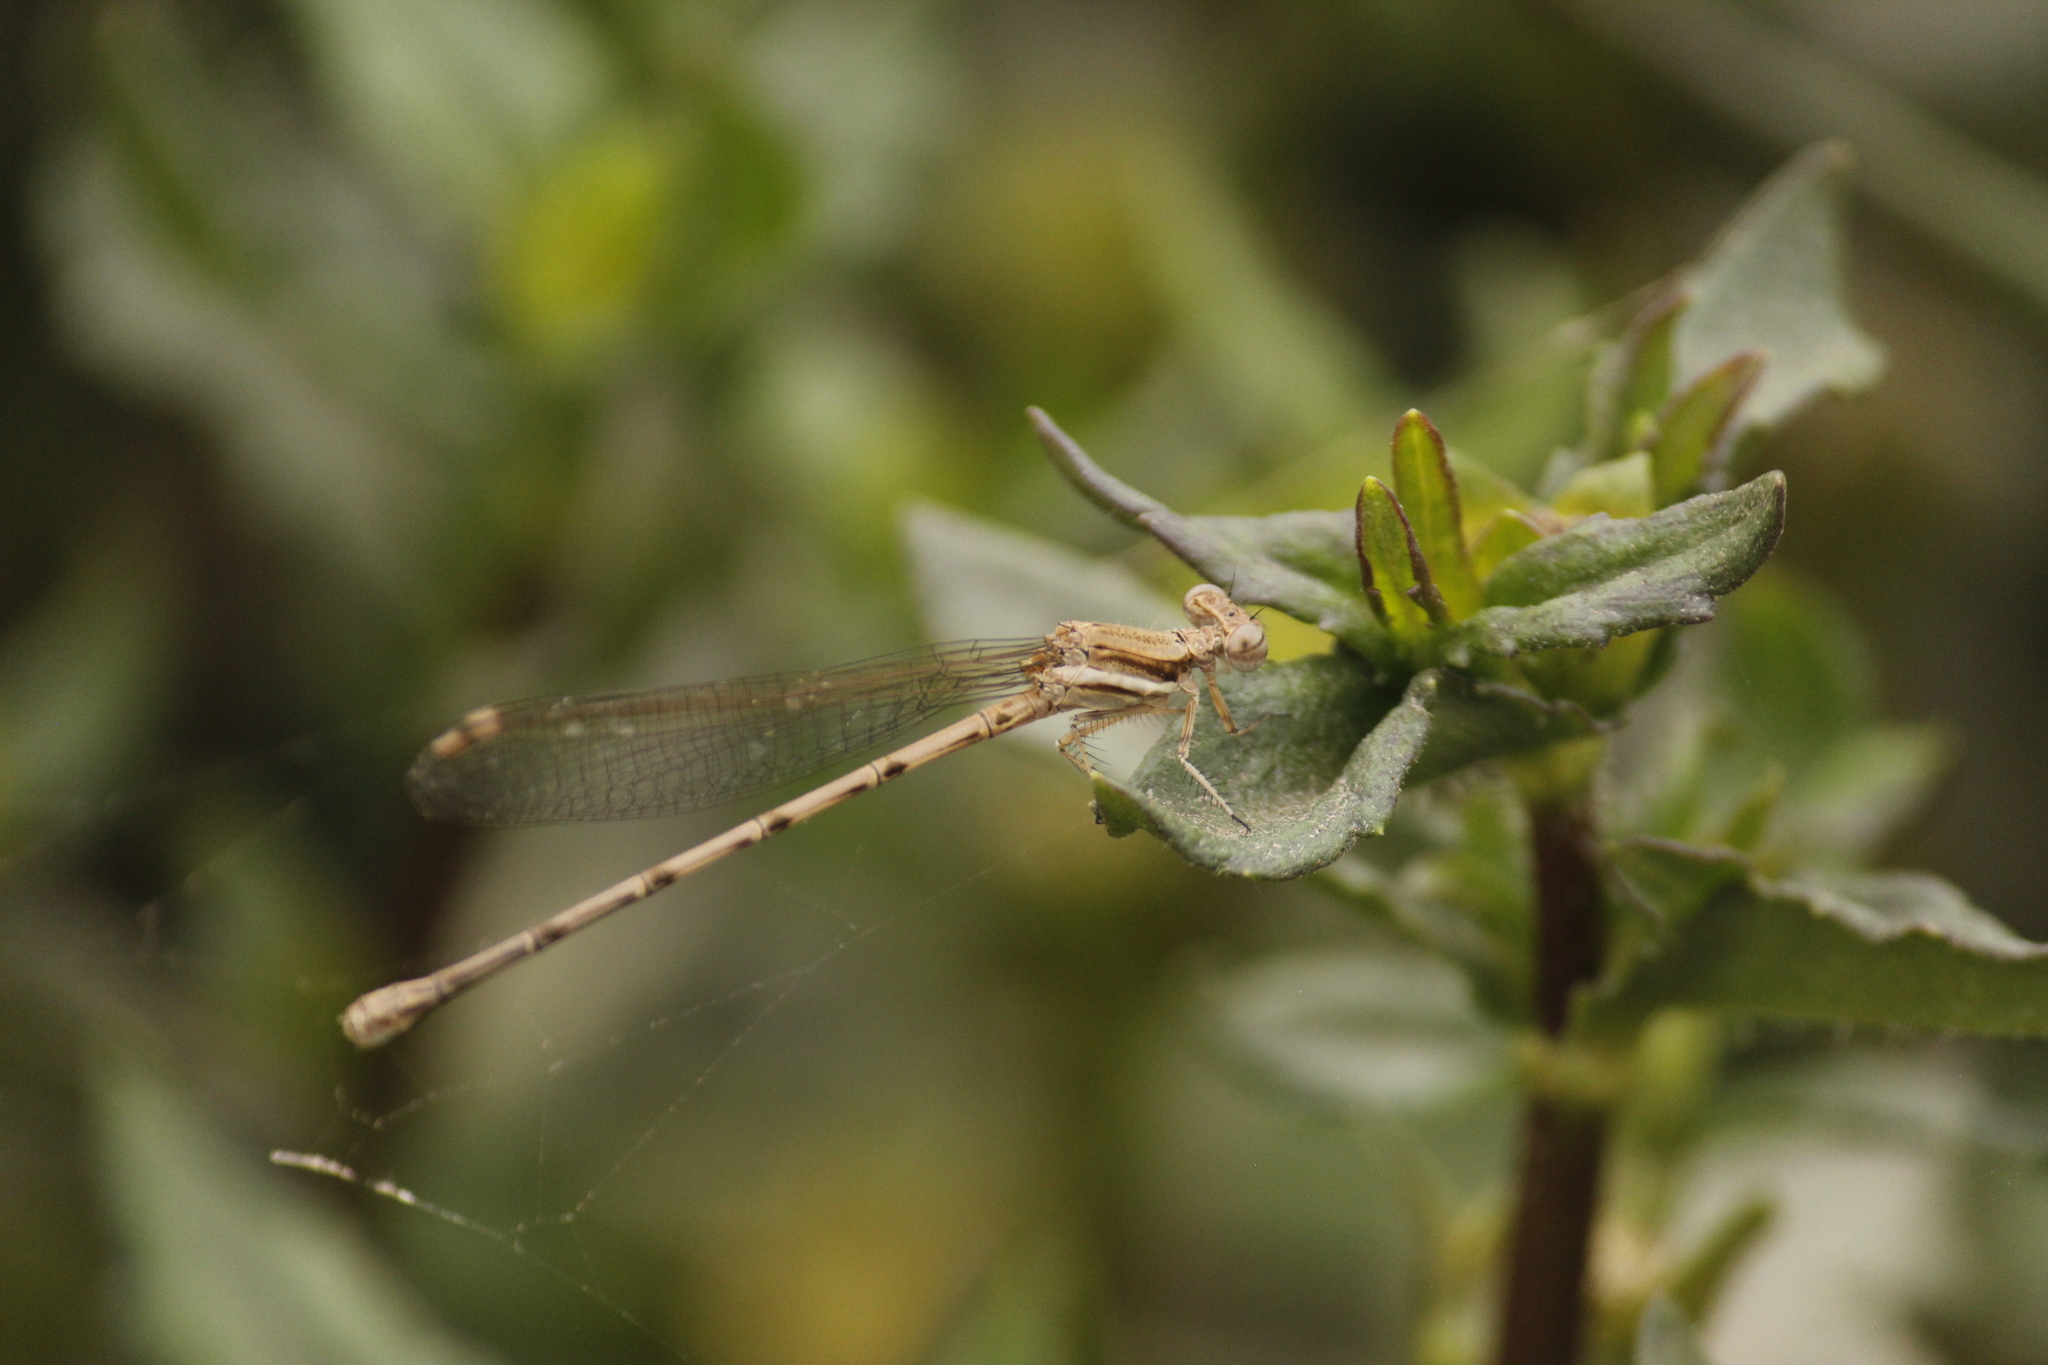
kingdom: Animalia
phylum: Arthropoda
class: Insecta
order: Odonata
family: Coenagrionidae
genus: Argia
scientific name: Argia inculta
